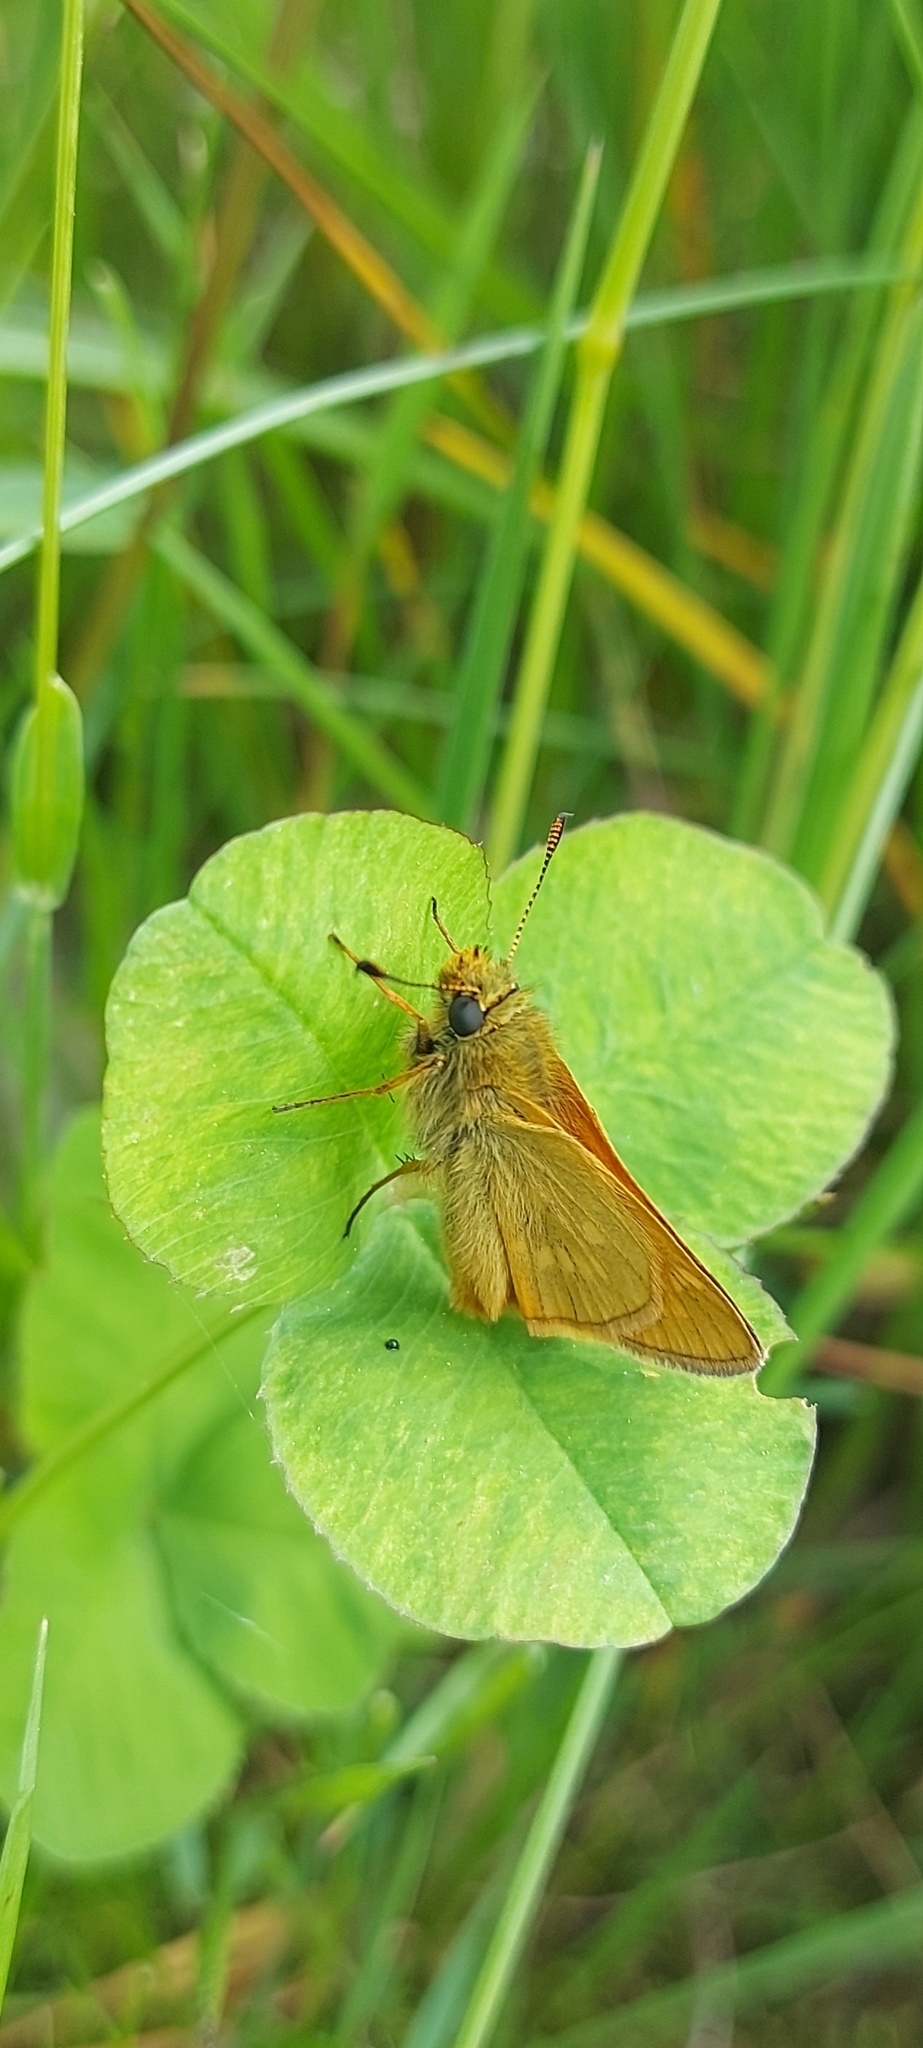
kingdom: Animalia
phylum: Arthropoda
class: Insecta
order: Lepidoptera
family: Hesperiidae
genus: Ochlodes
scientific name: Ochlodes venata
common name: Large skipper
